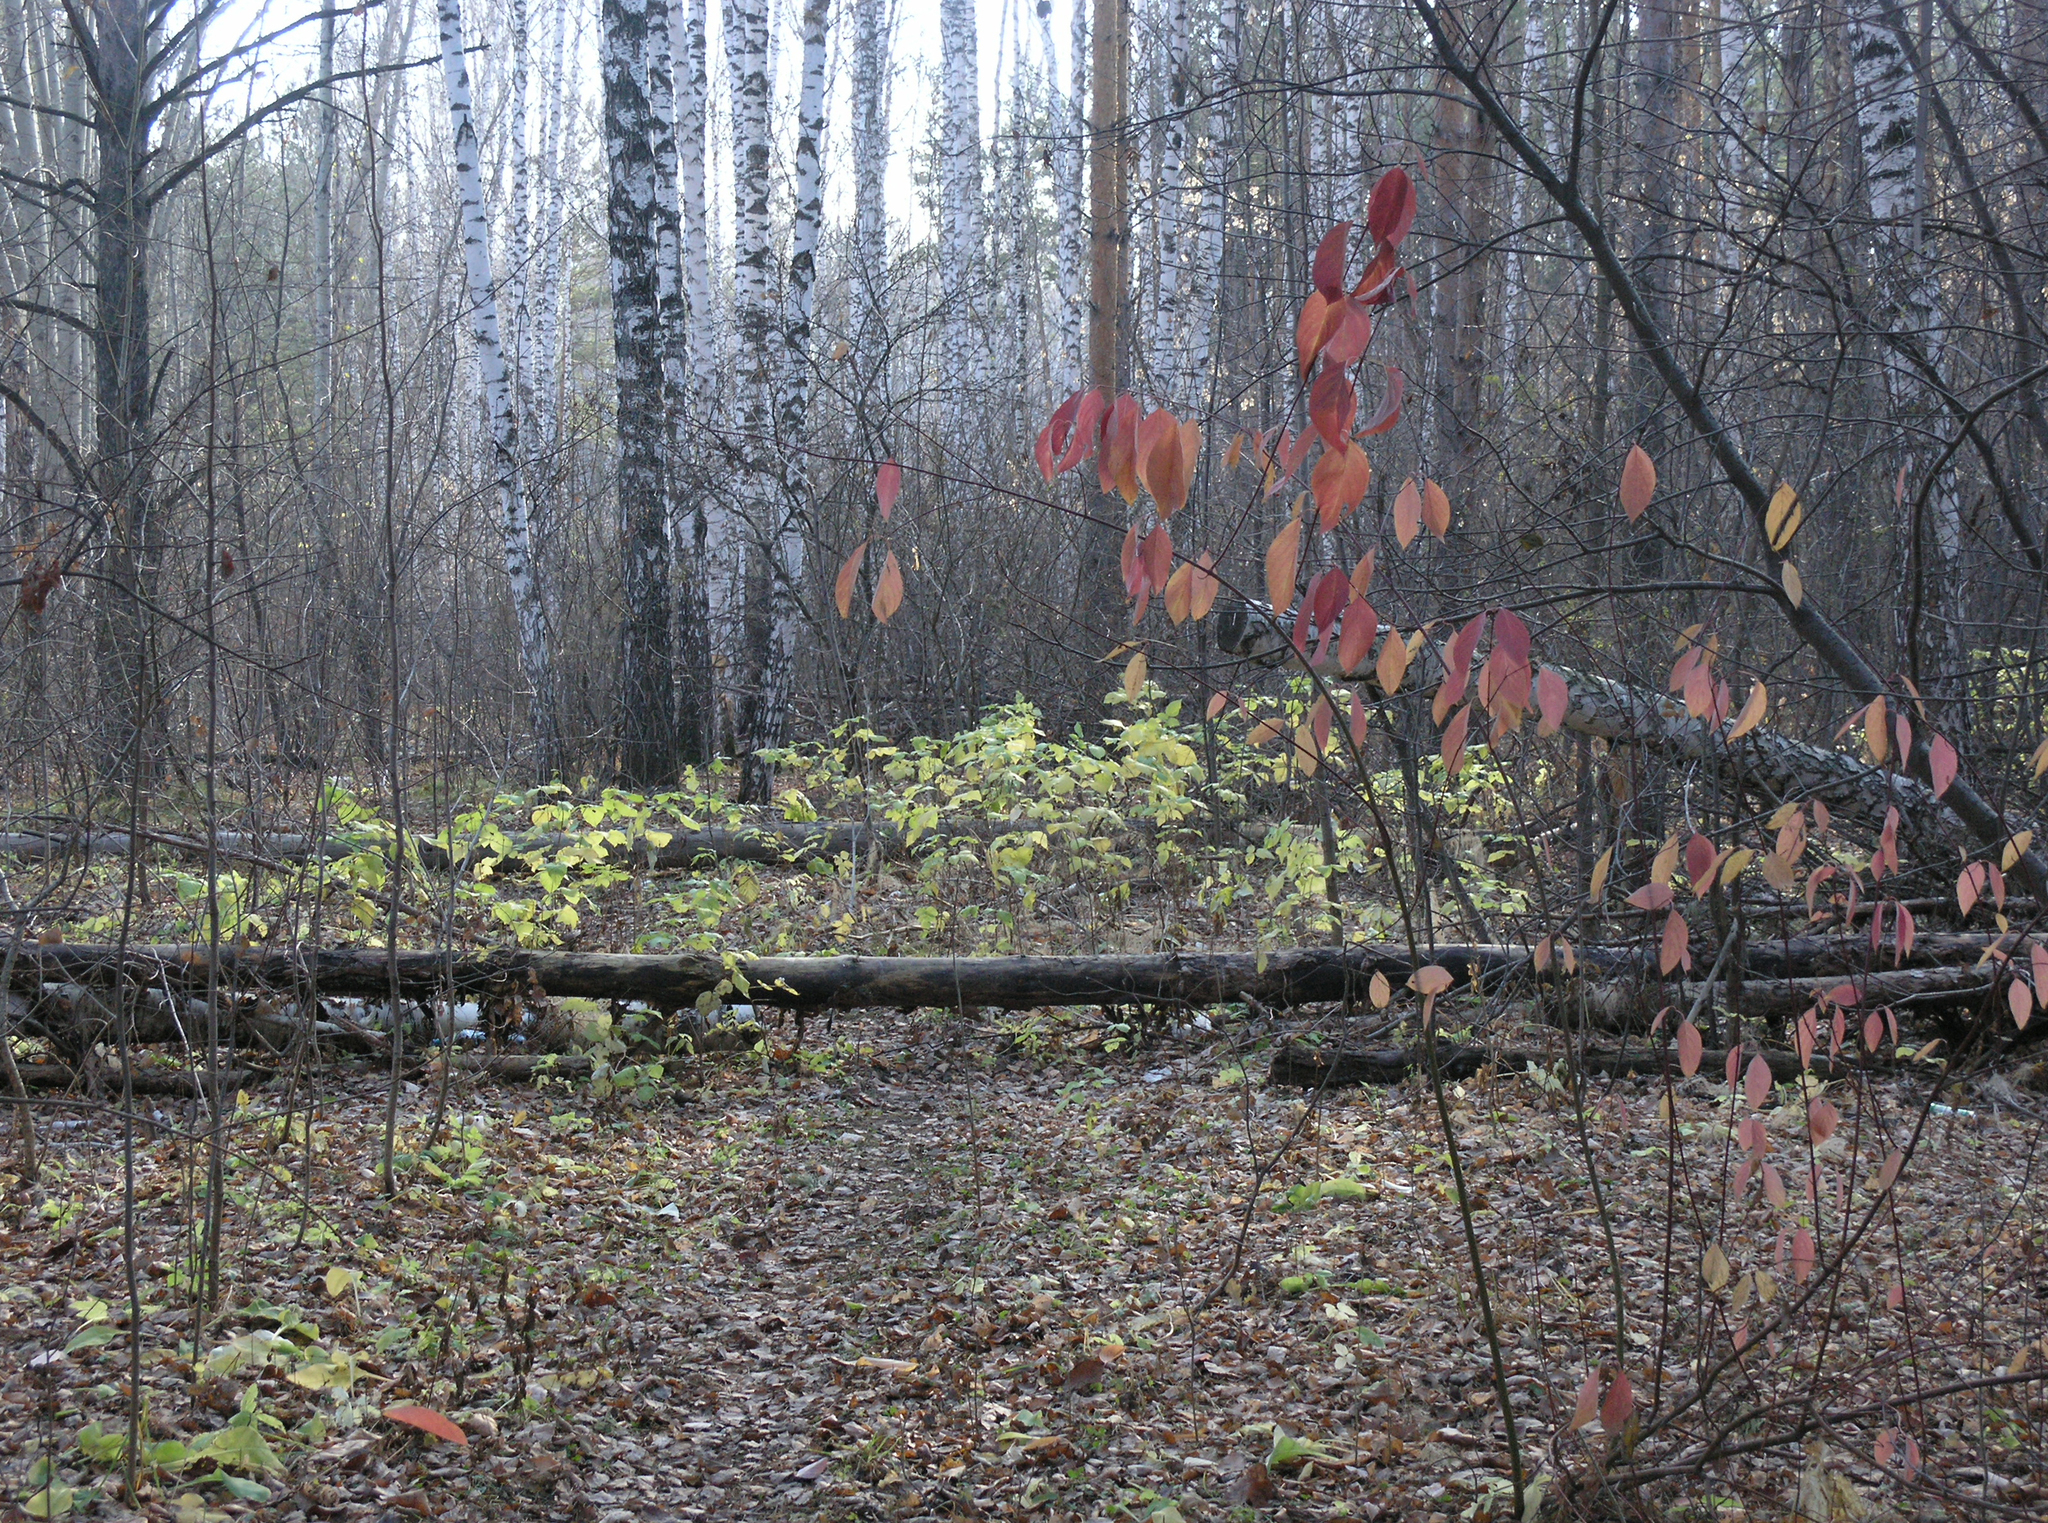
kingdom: Plantae
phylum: Tracheophyta
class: Magnoliopsida
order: Cornales
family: Cornaceae
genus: Cornus
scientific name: Cornus alba
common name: White dogwood
